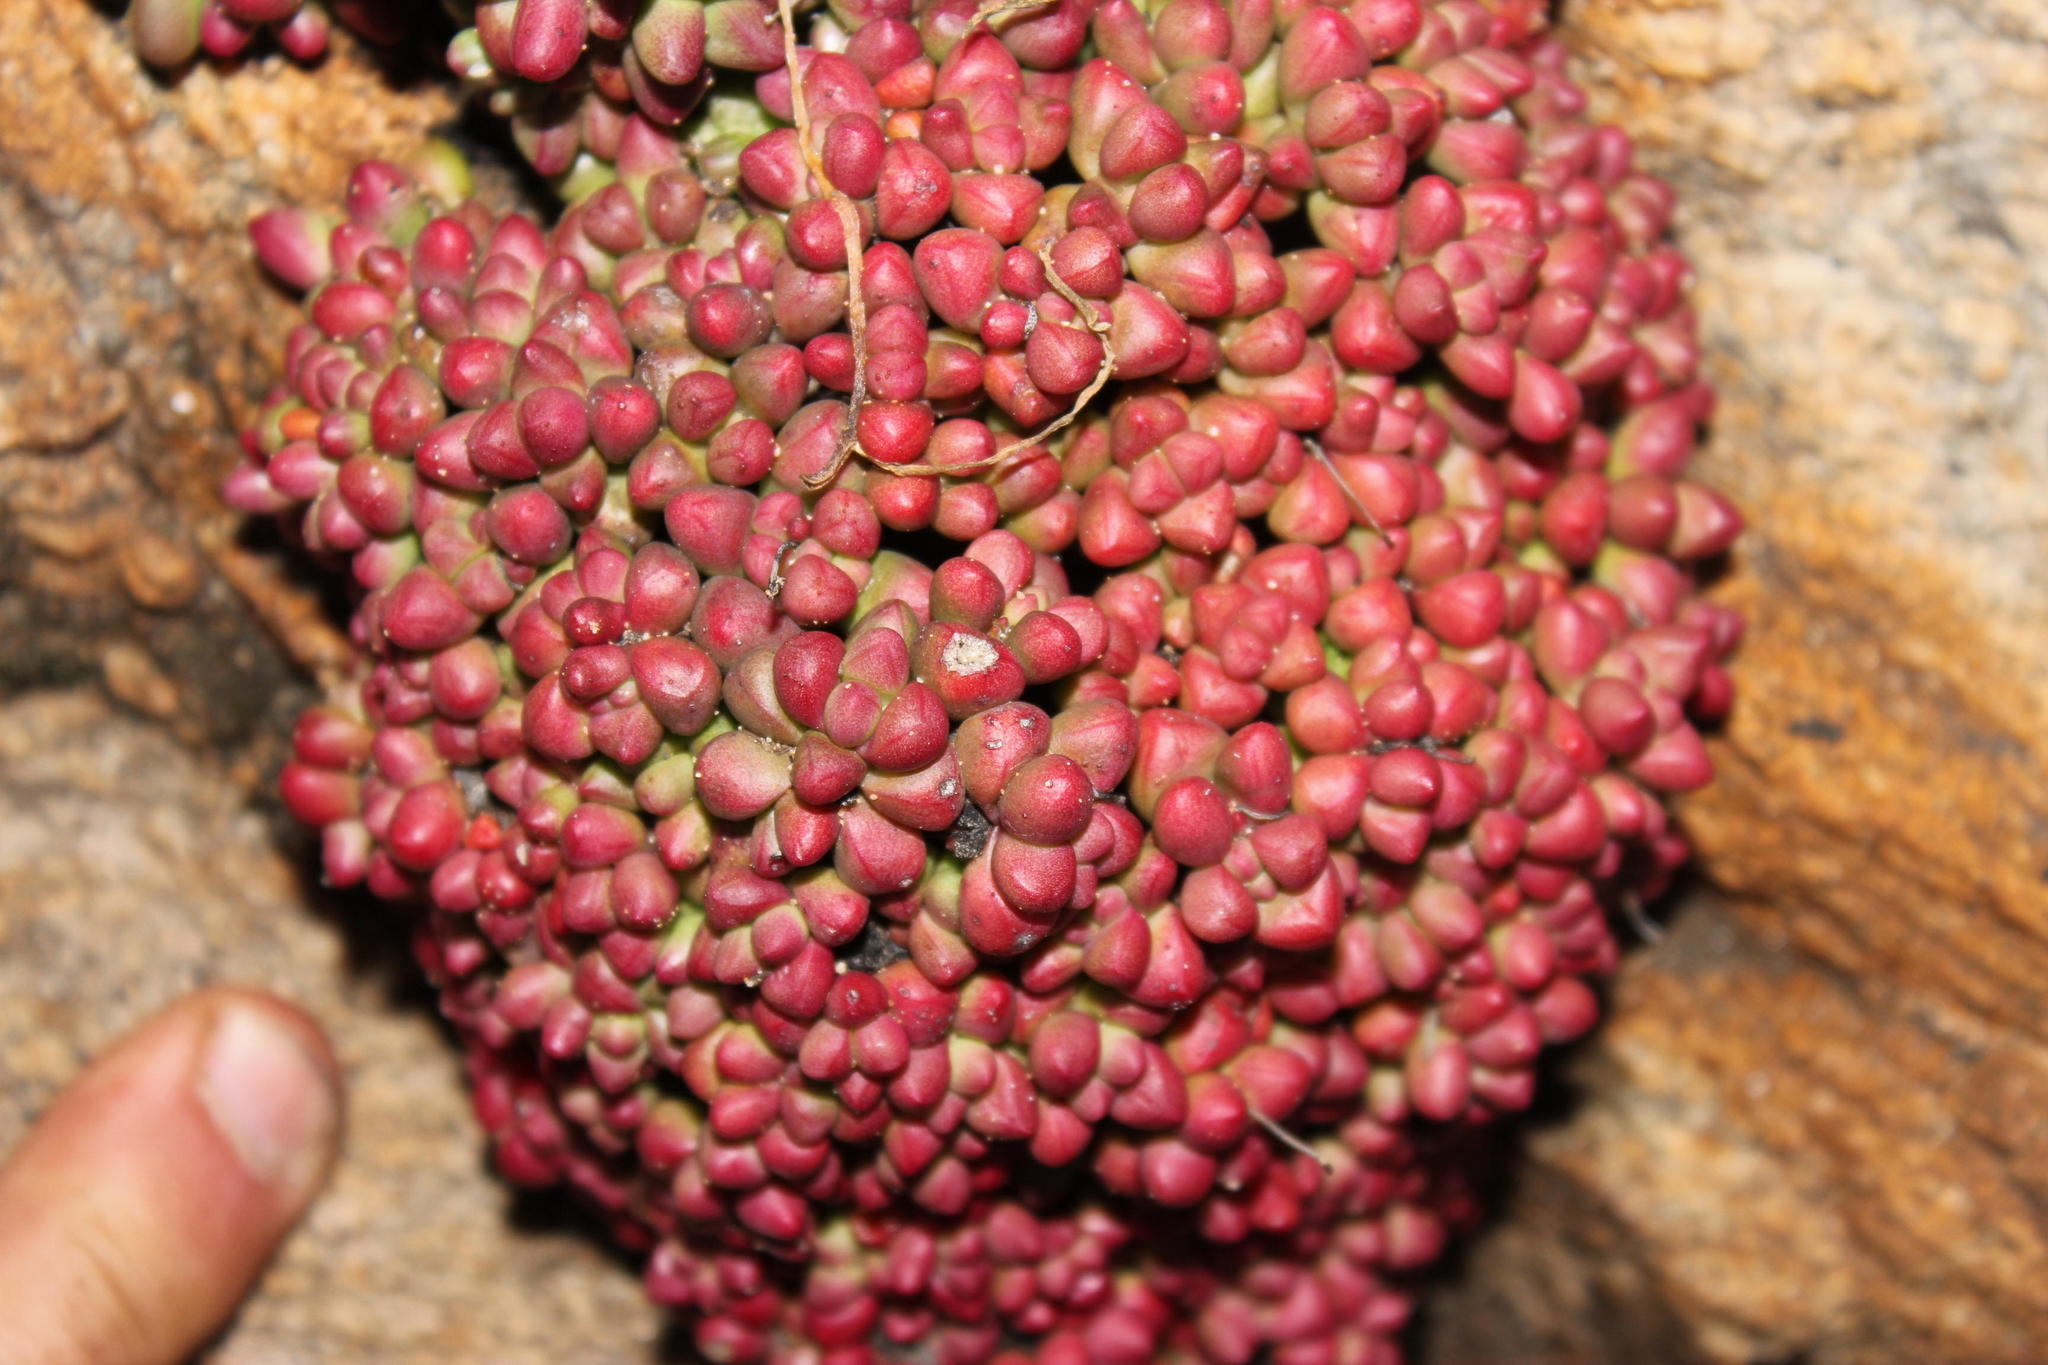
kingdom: Plantae
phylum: Tracheophyta
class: Magnoliopsida
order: Saxifragales
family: Crassulaceae
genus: Crassula
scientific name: Crassula elegans
